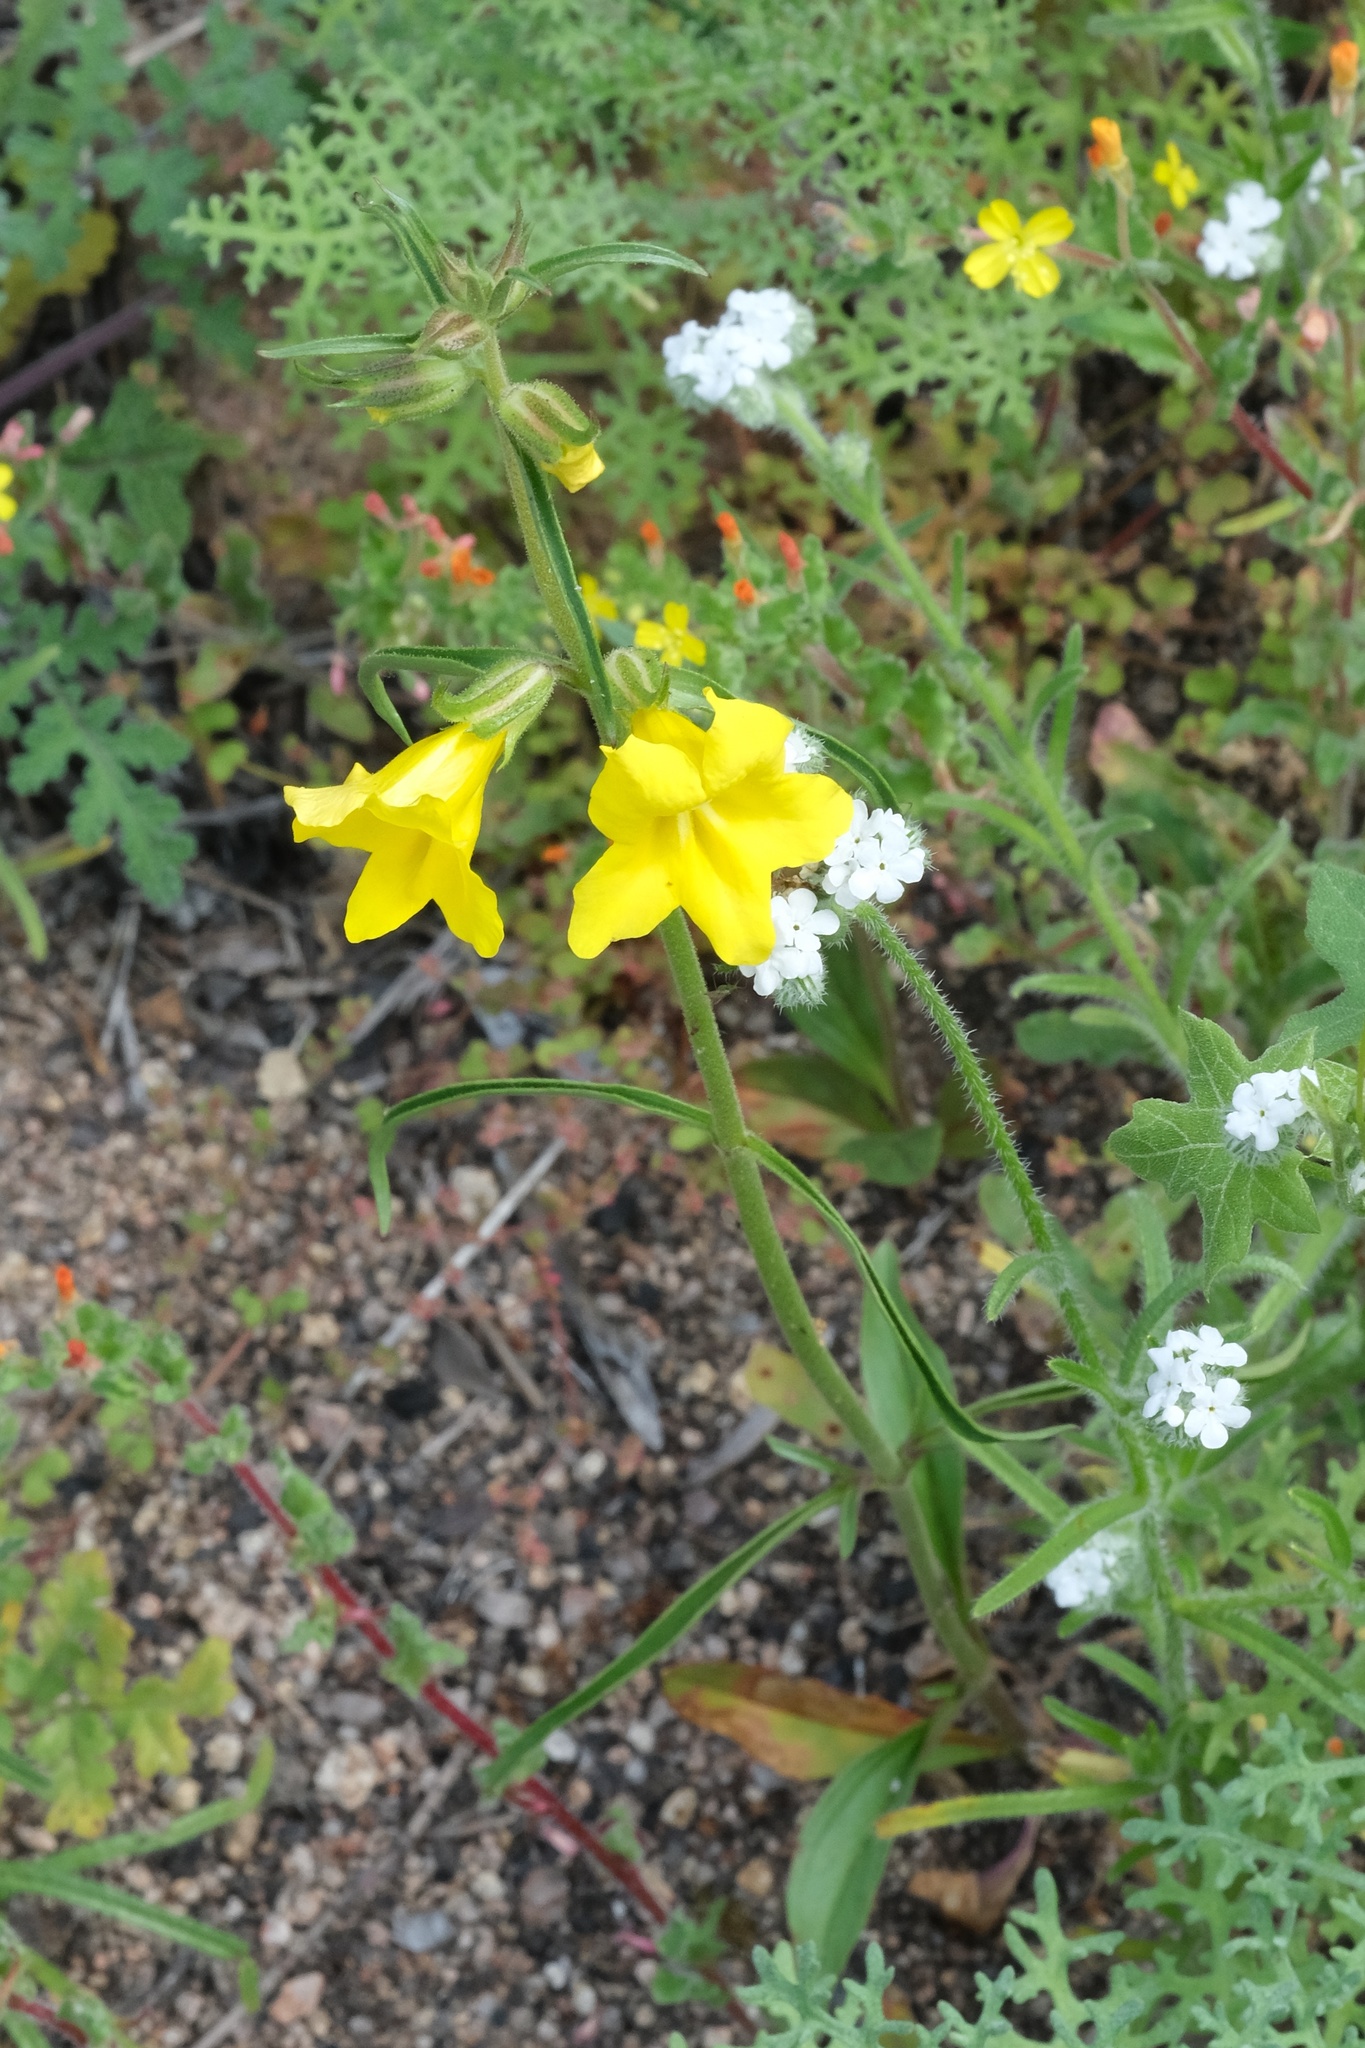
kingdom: Plantae
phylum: Tracheophyta
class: Magnoliopsida
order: Lamiales
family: Phrymaceae
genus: Diplacus
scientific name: Diplacus brevipes
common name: Wide-throat yellow monkey-flower
